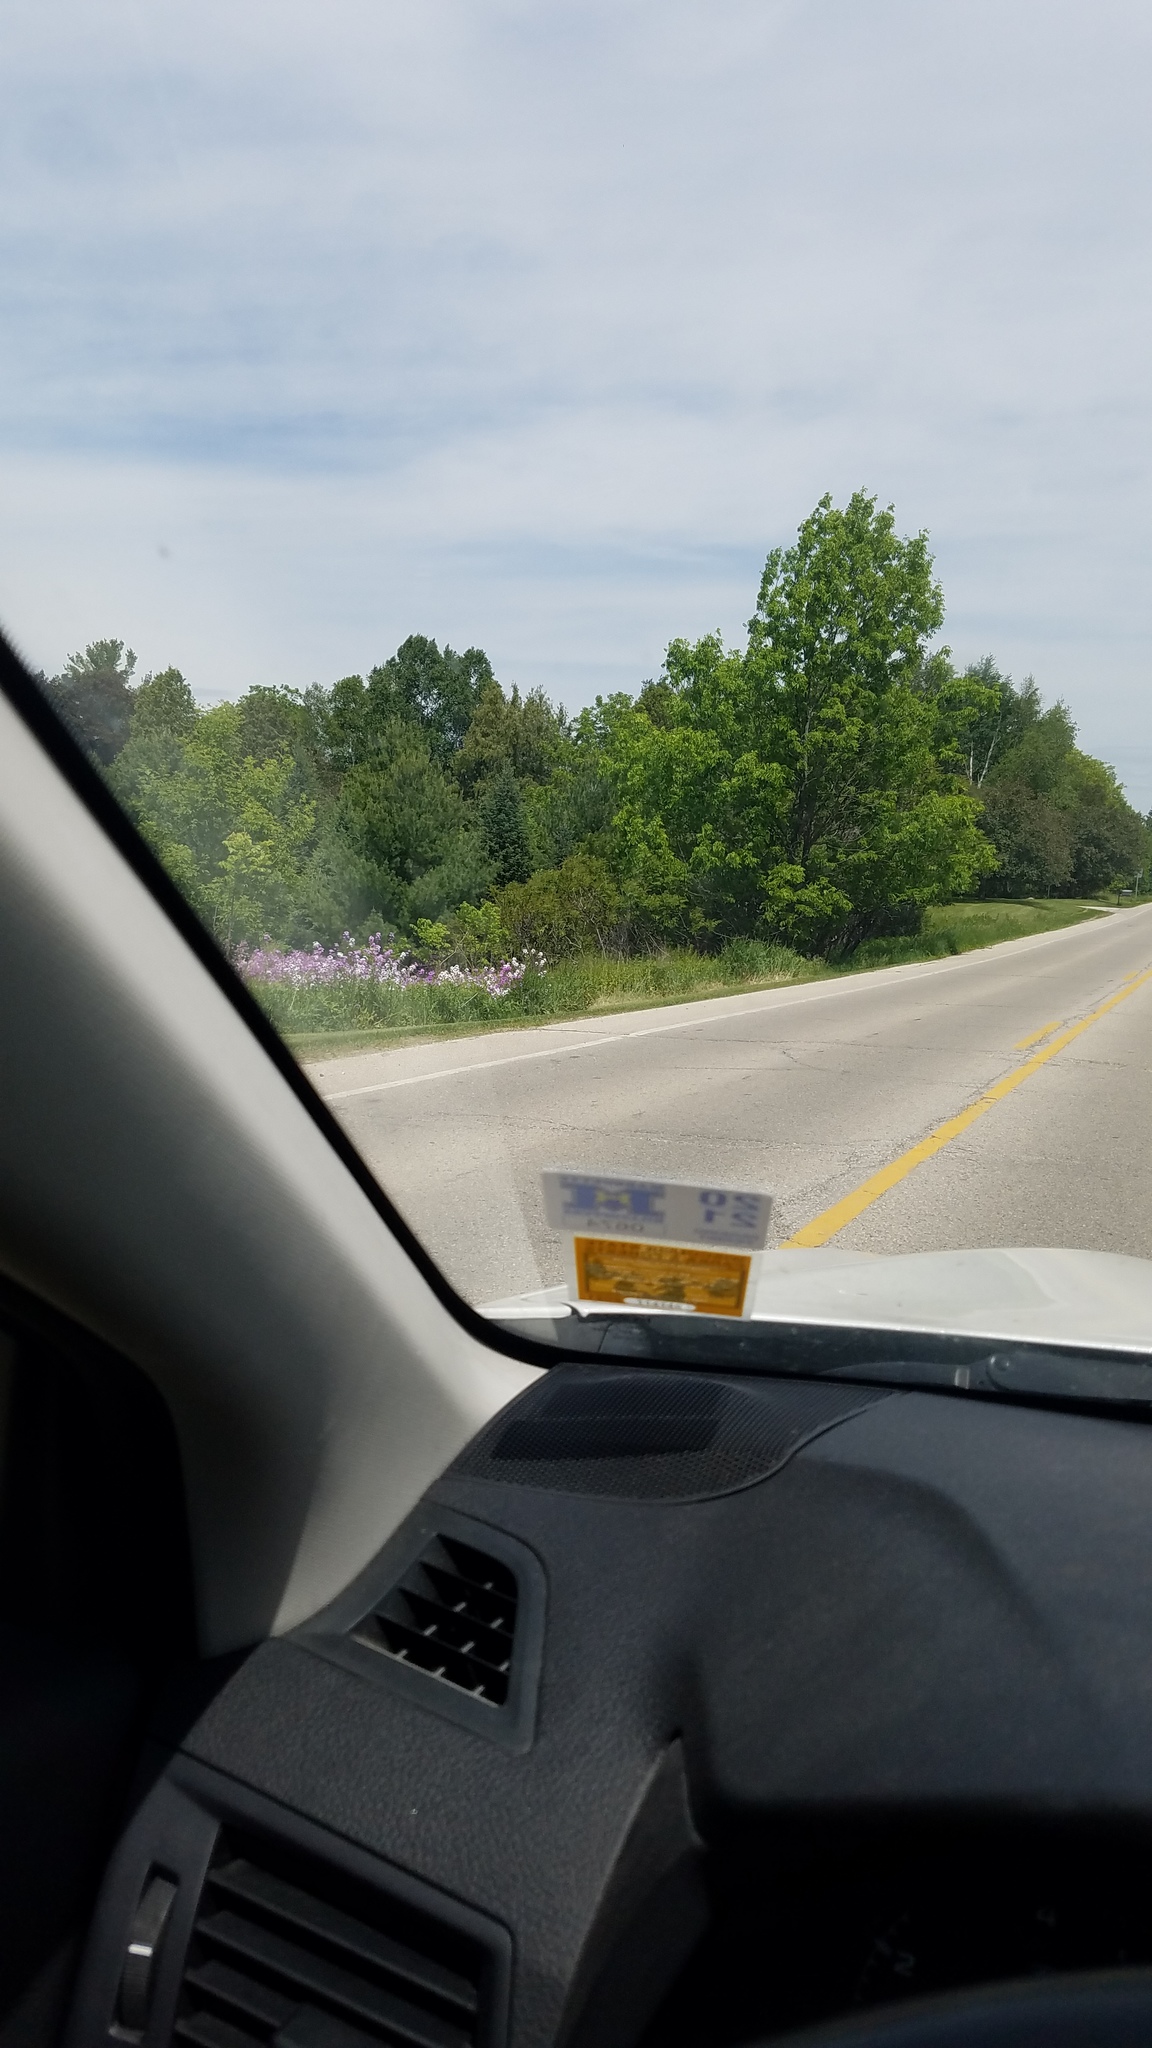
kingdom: Plantae
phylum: Tracheophyta
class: Magnoliopsida
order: Brassicales
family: Brassicaceae
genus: Hesperis
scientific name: Hesperis matronalis
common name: Dame's-violet
